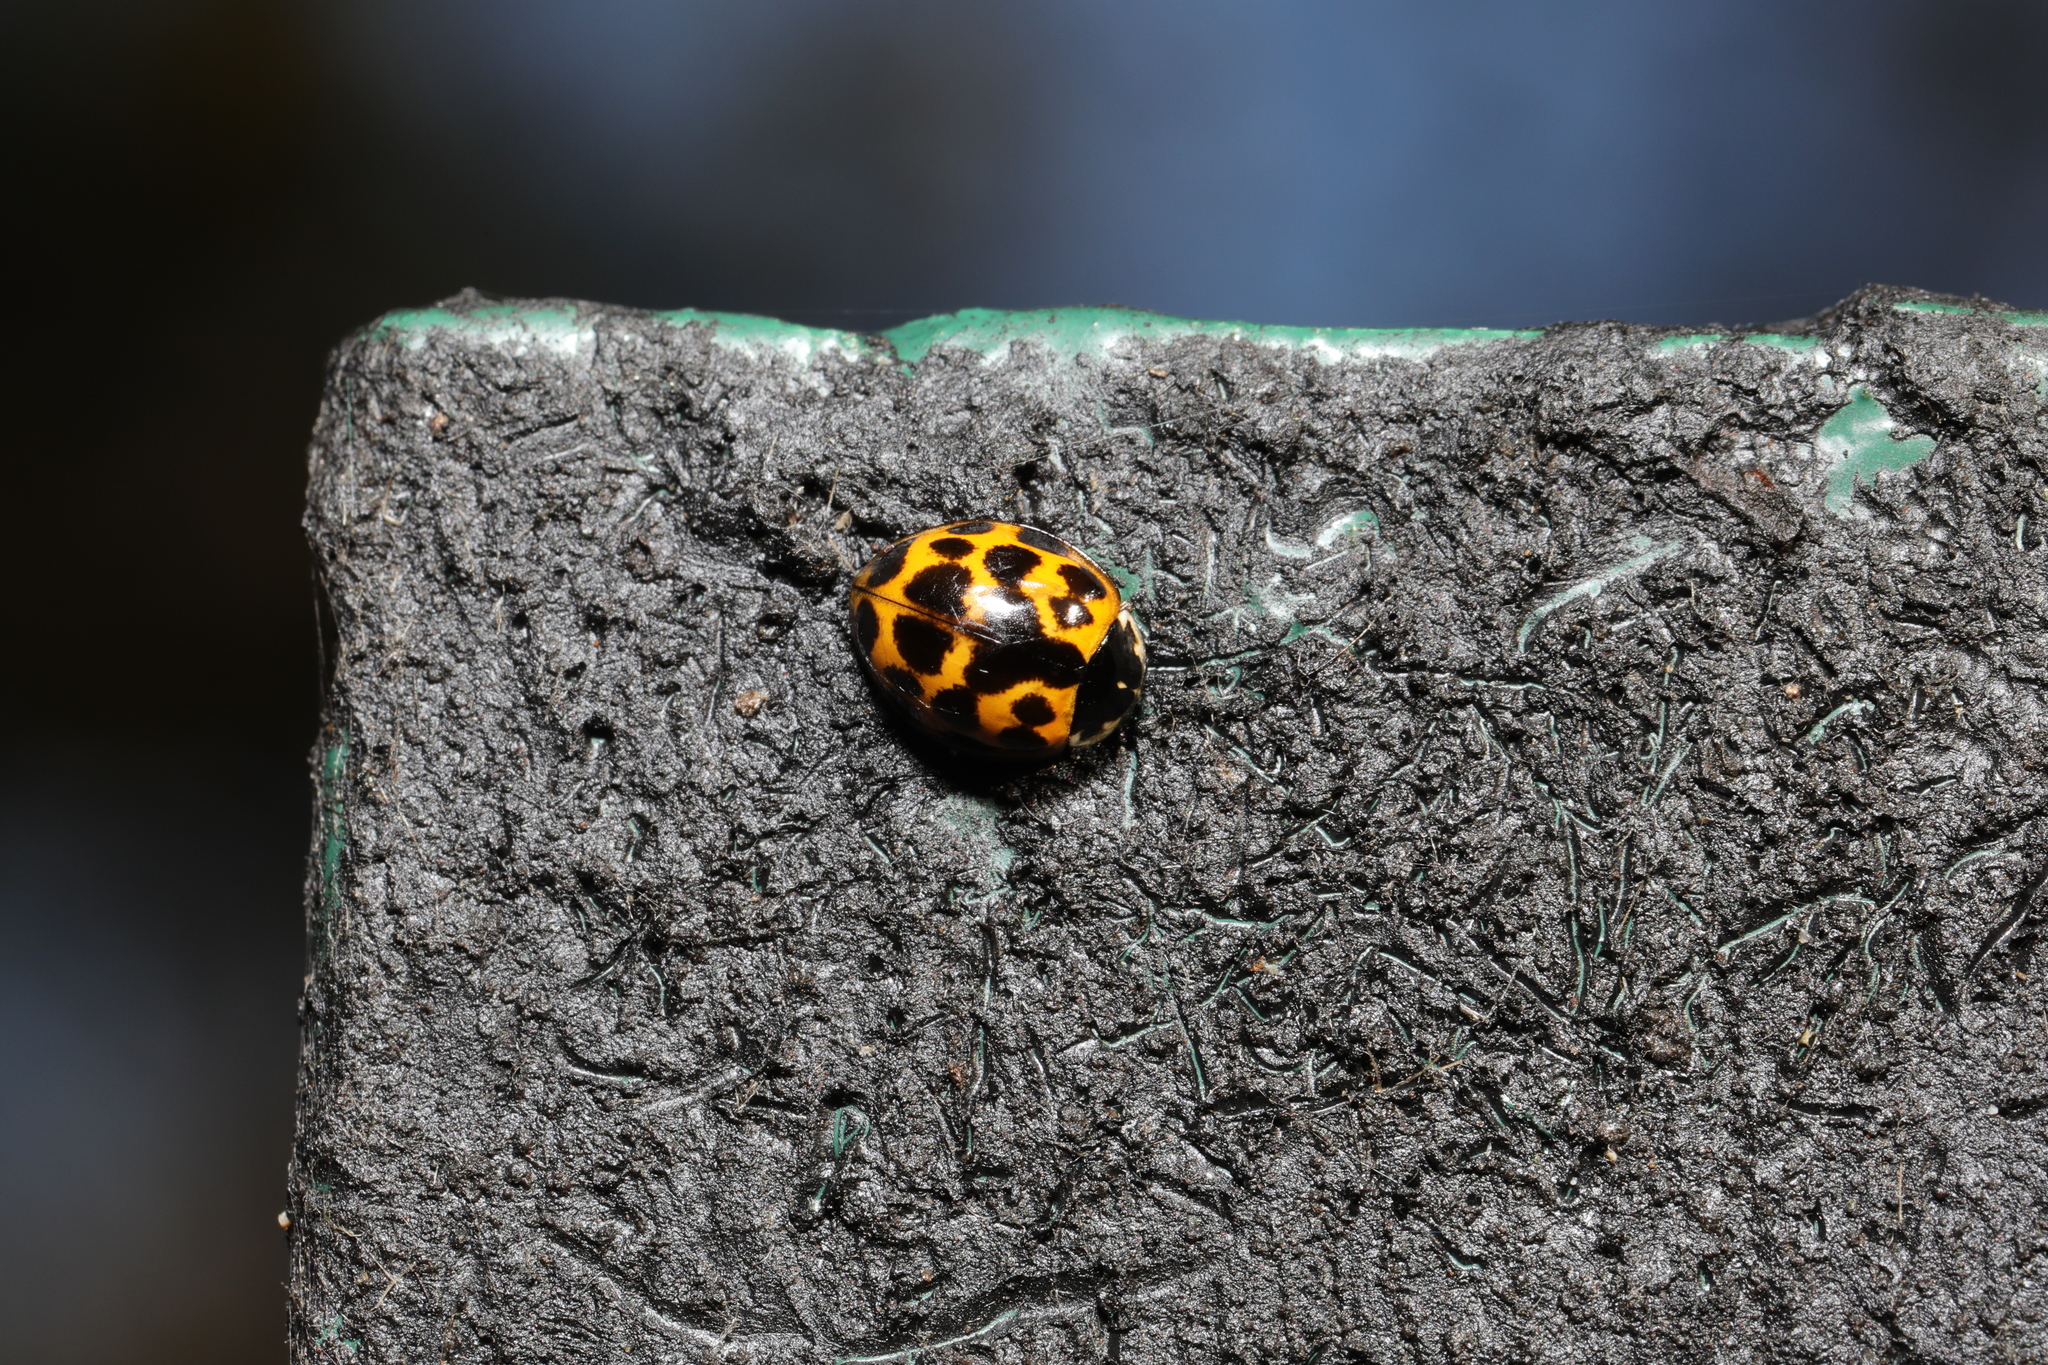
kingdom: Animalia
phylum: Arthropoda
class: Insecta
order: Coleoptera
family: Coccinellidae
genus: Harmonia
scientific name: Harmonia axyridis
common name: Harlequin ladybird
